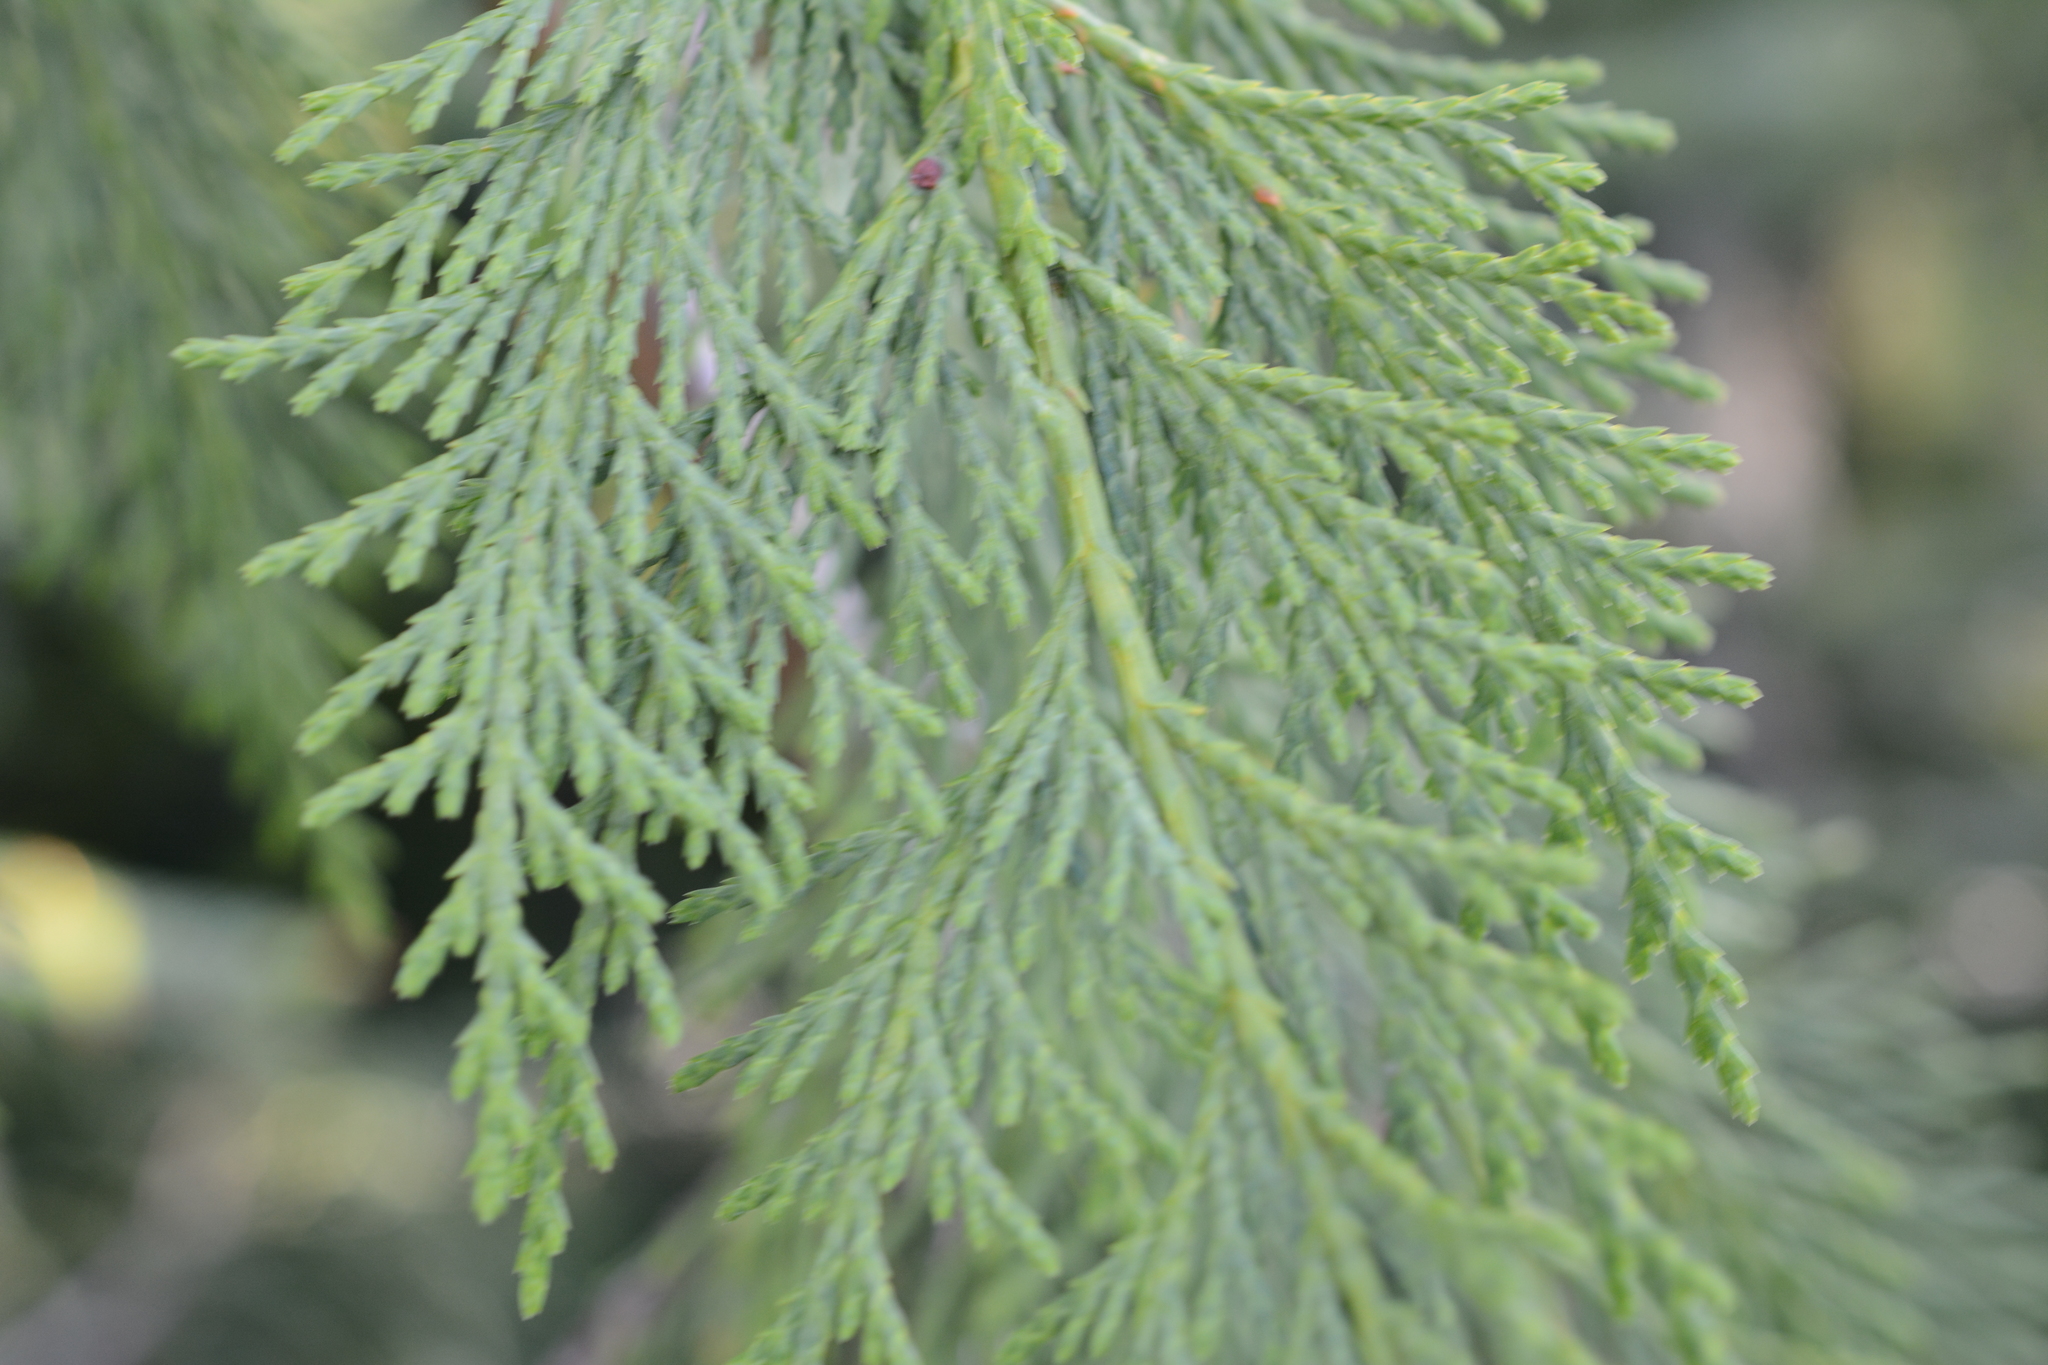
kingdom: Plantae
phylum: Tracheophyta
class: Pinopsida
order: Pinales
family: Cupressaceae
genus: Xanthocyparis
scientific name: Xanthocyparis nootkatensis
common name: Nootka cypress
